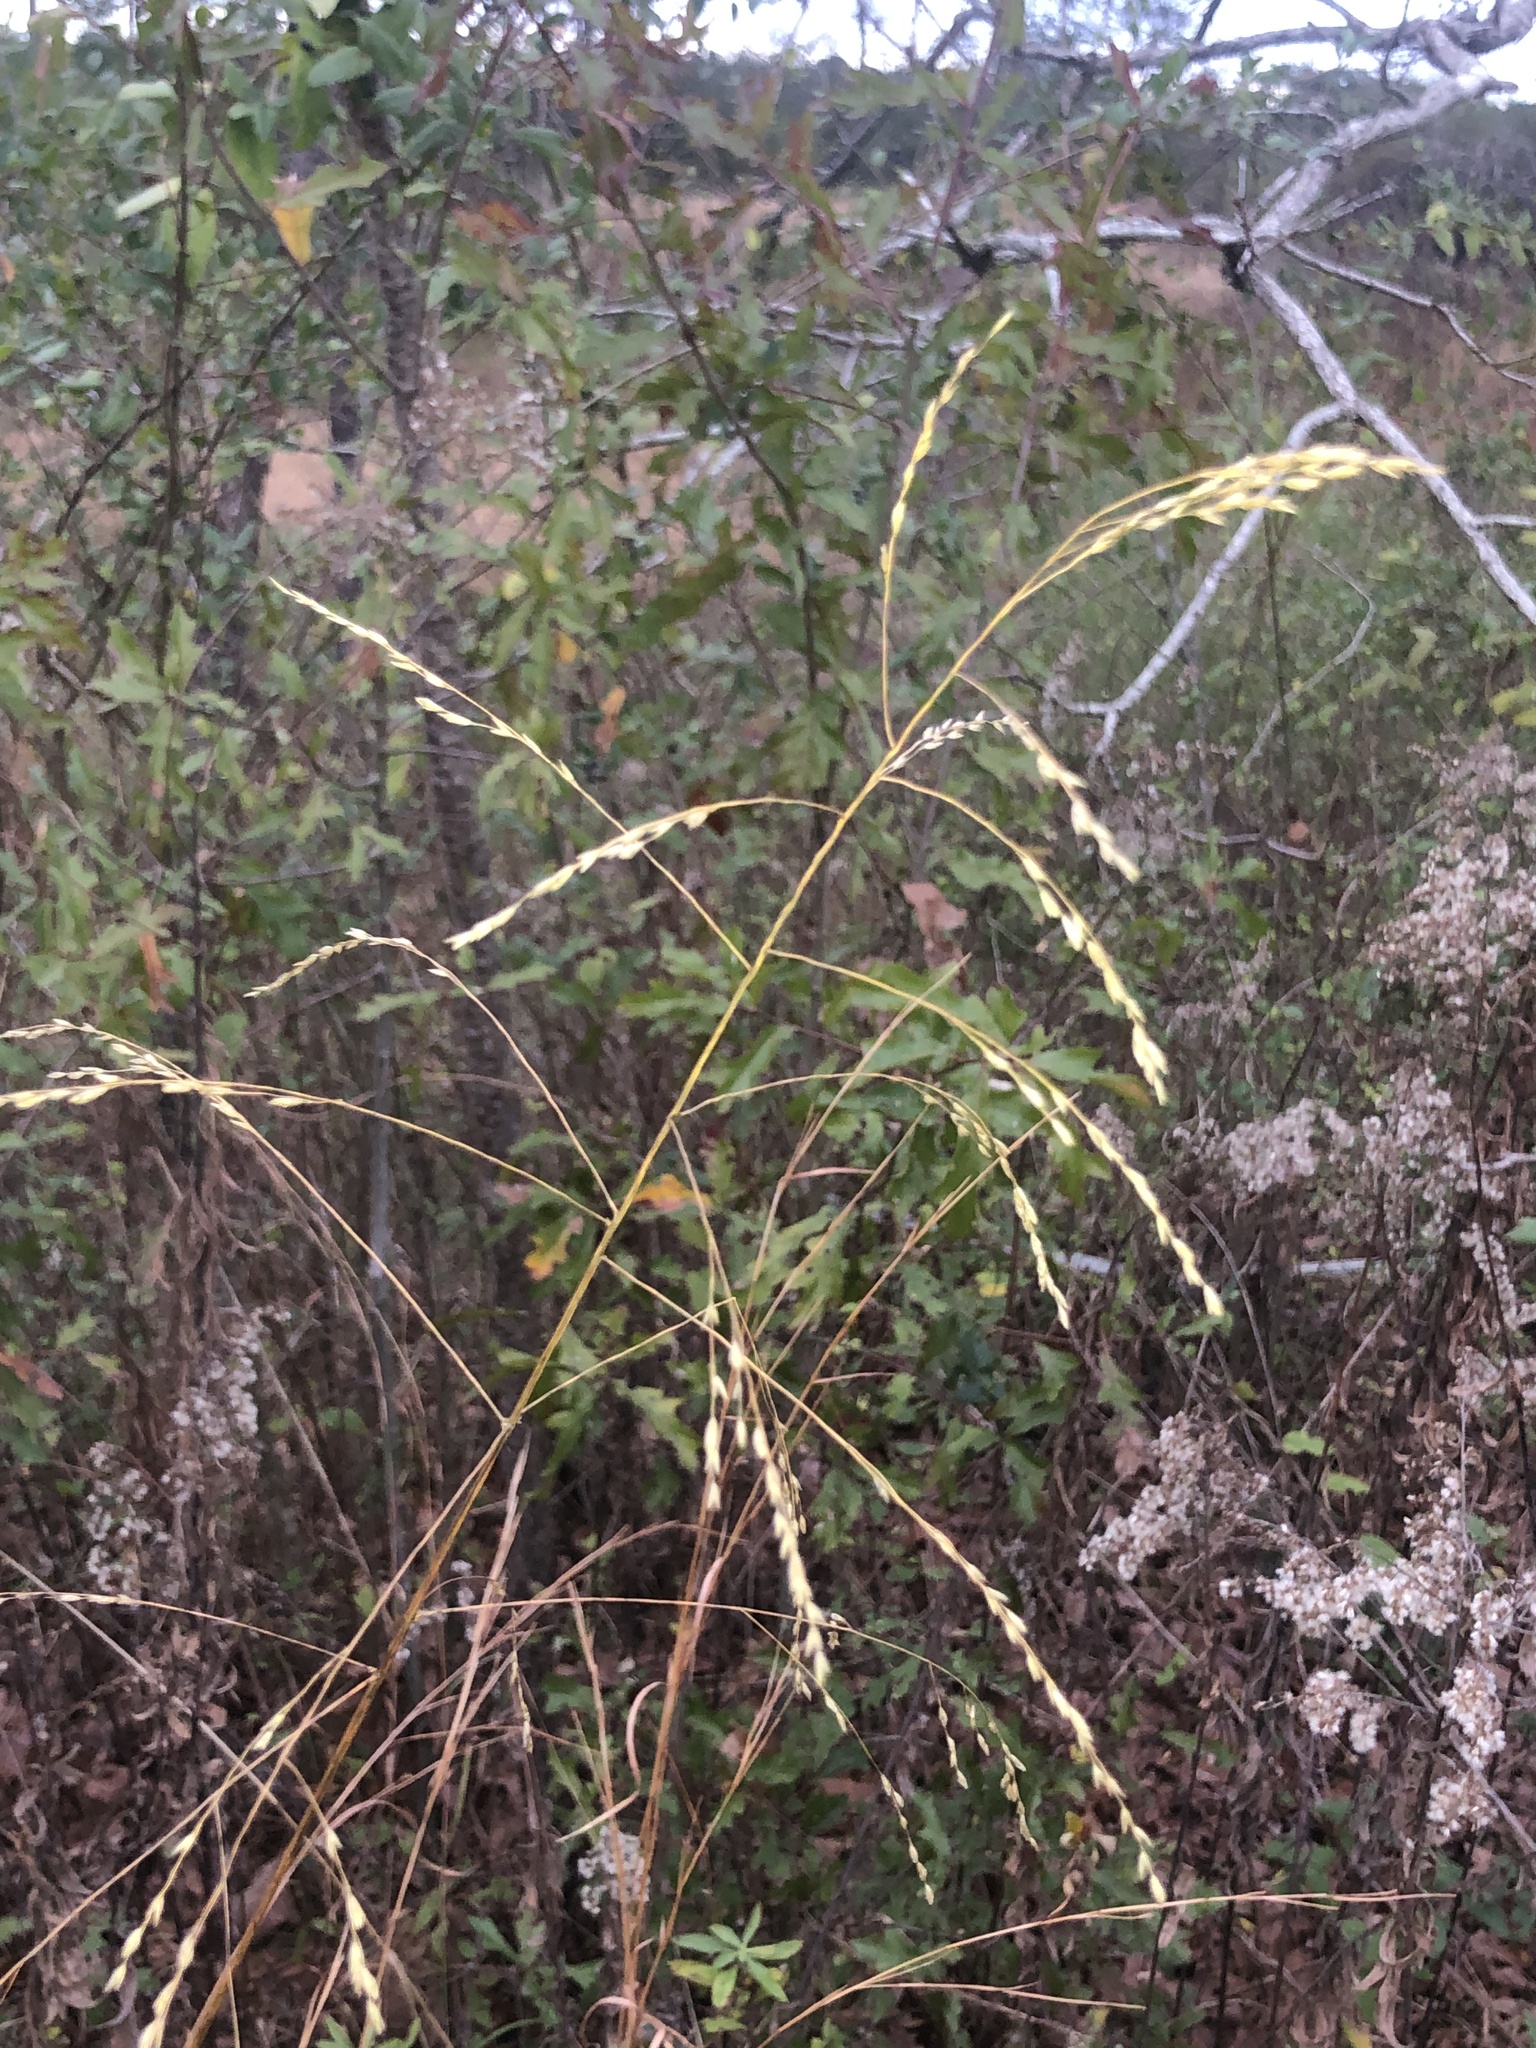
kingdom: Plantae
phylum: Tracheophyta
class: Liliopsida
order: Poales
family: Poaceae
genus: Tridens
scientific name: Tridens flavus
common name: Purpletop
